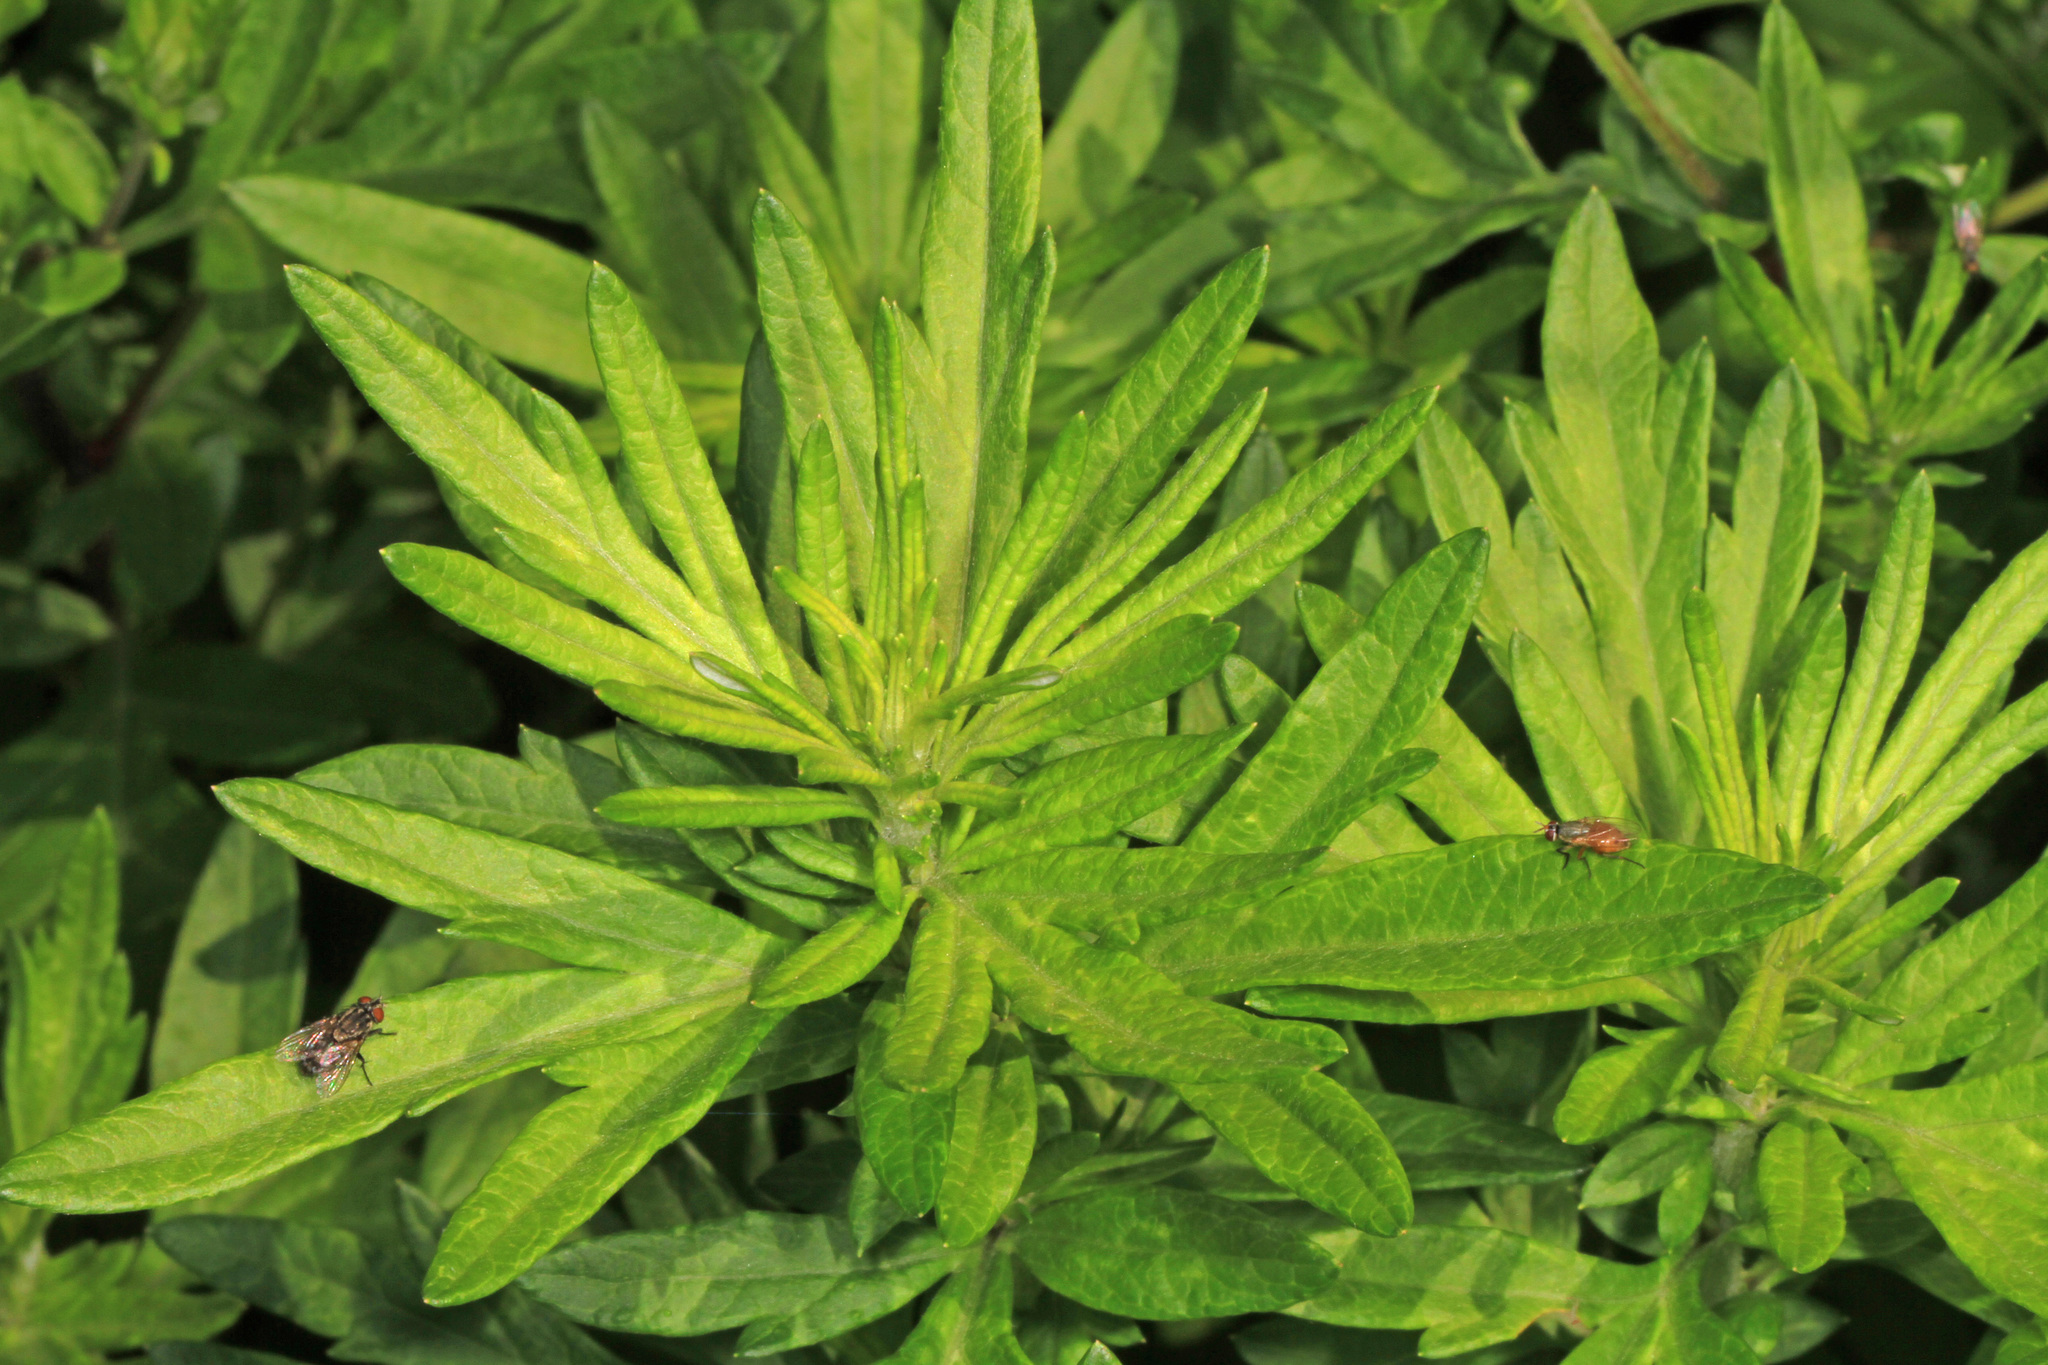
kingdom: Plantae
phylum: Tracheophyta
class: Magnoliopsida
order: Asterales
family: Asteraceae
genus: Artemisia
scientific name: Artemisia vulgaris
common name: Mugwort
